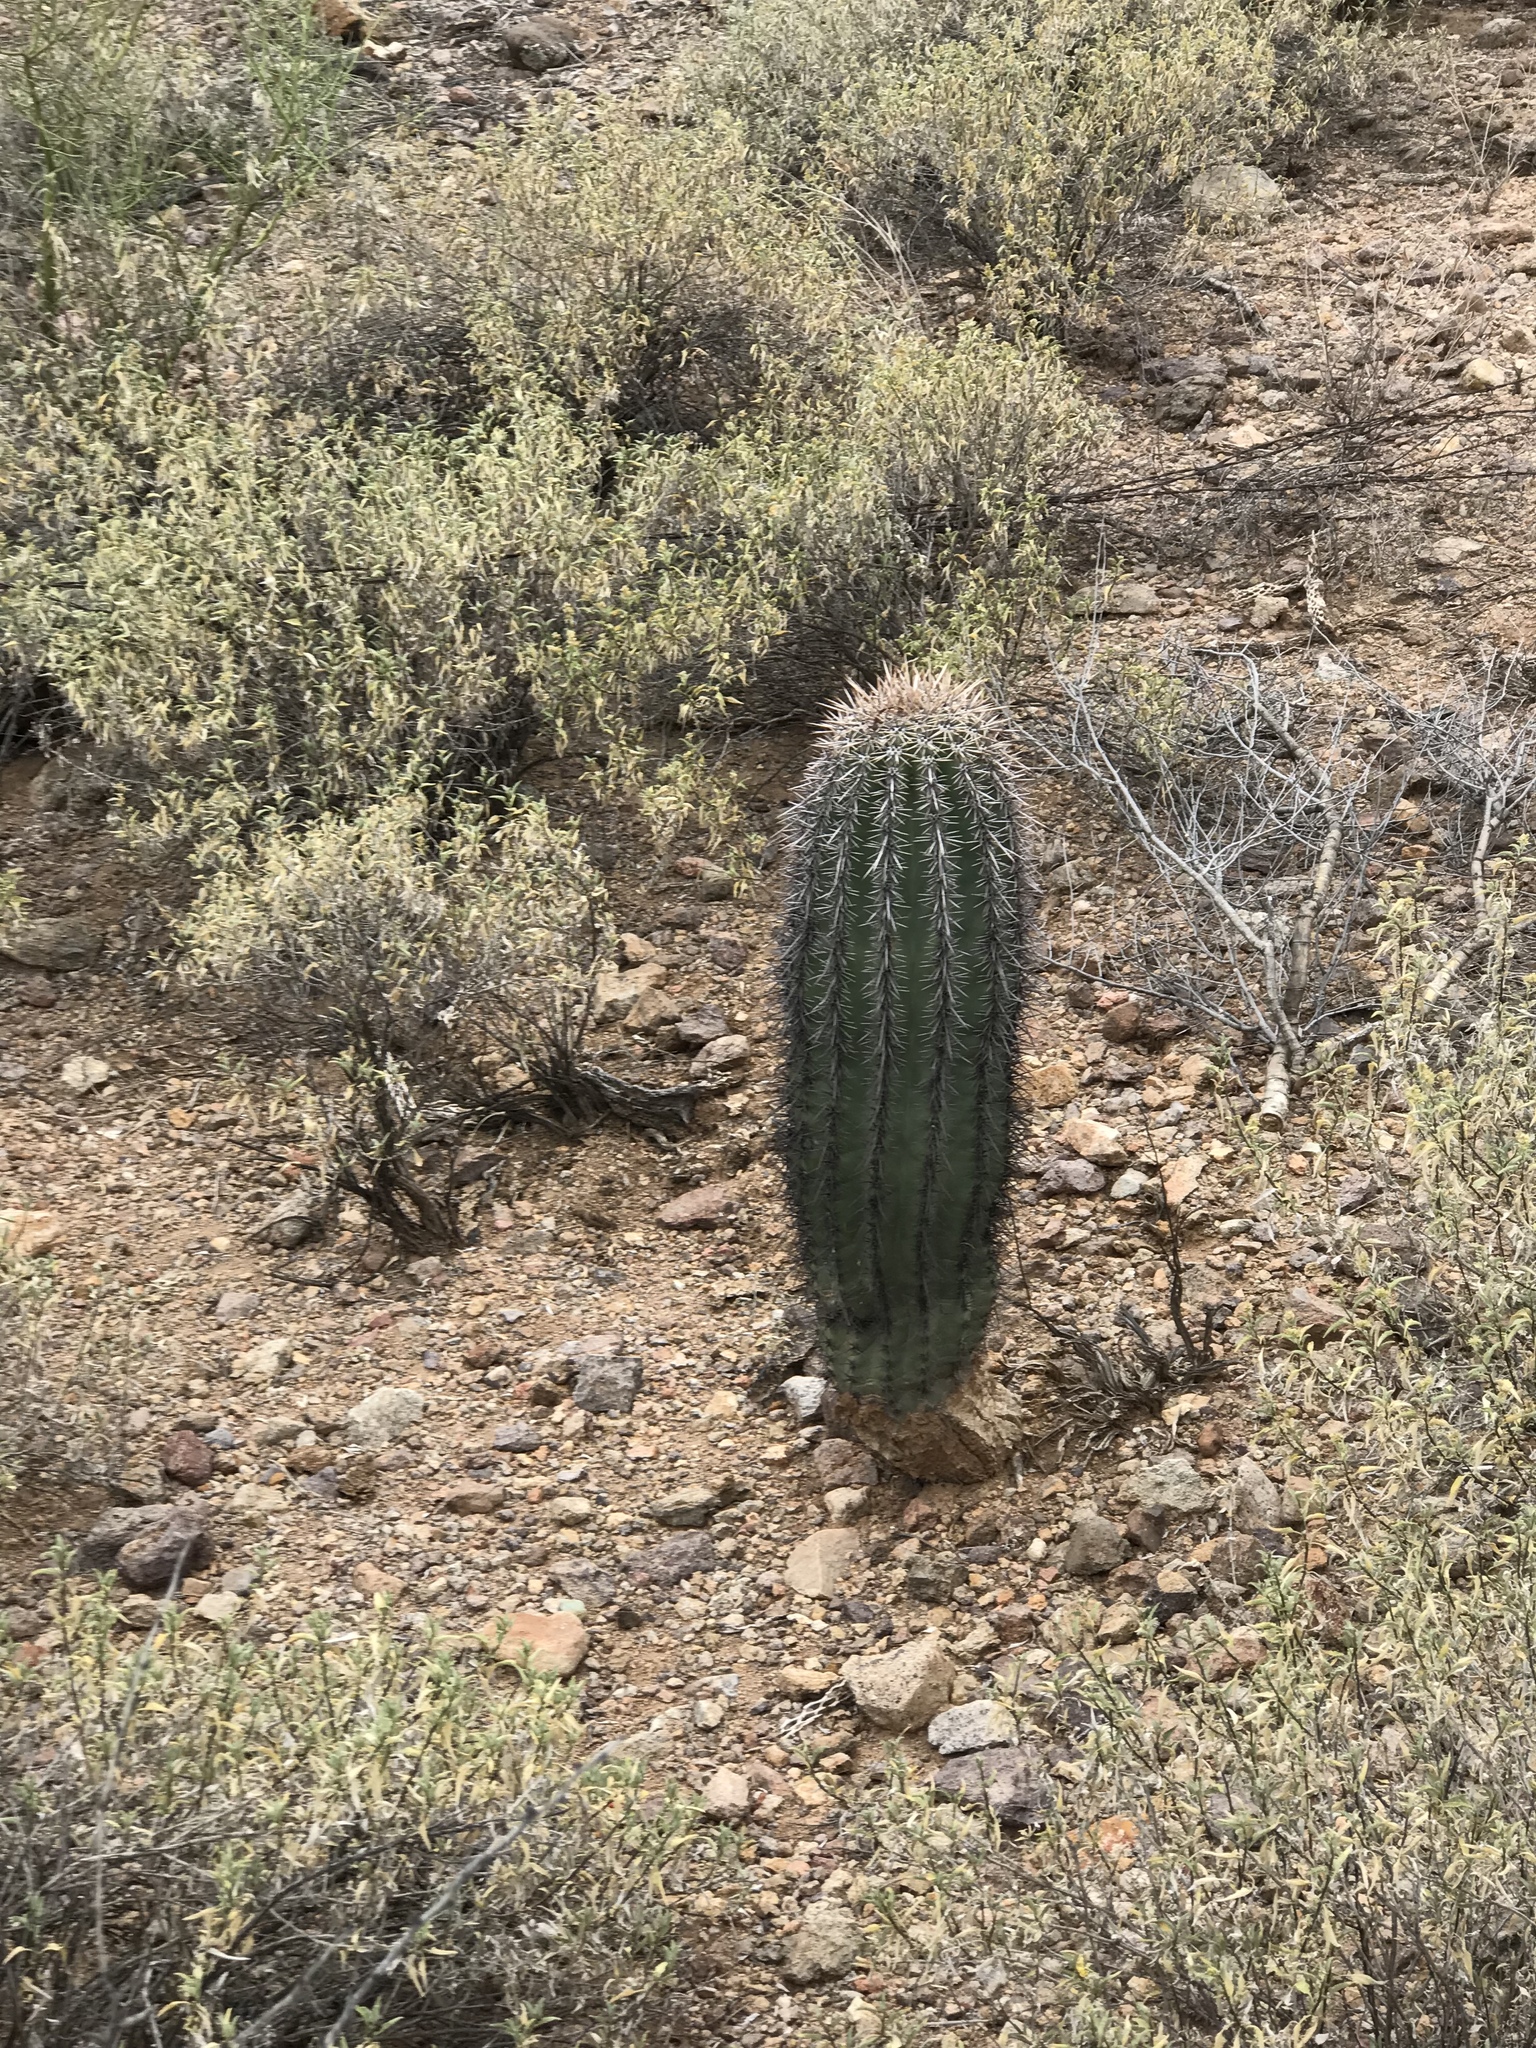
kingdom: Plantae
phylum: Tracheophyta
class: Magnoliopsida
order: Caryophyllales
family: Cactaceae
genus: Carnegiea
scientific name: Carnegiea gigantea
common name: Saguaro
